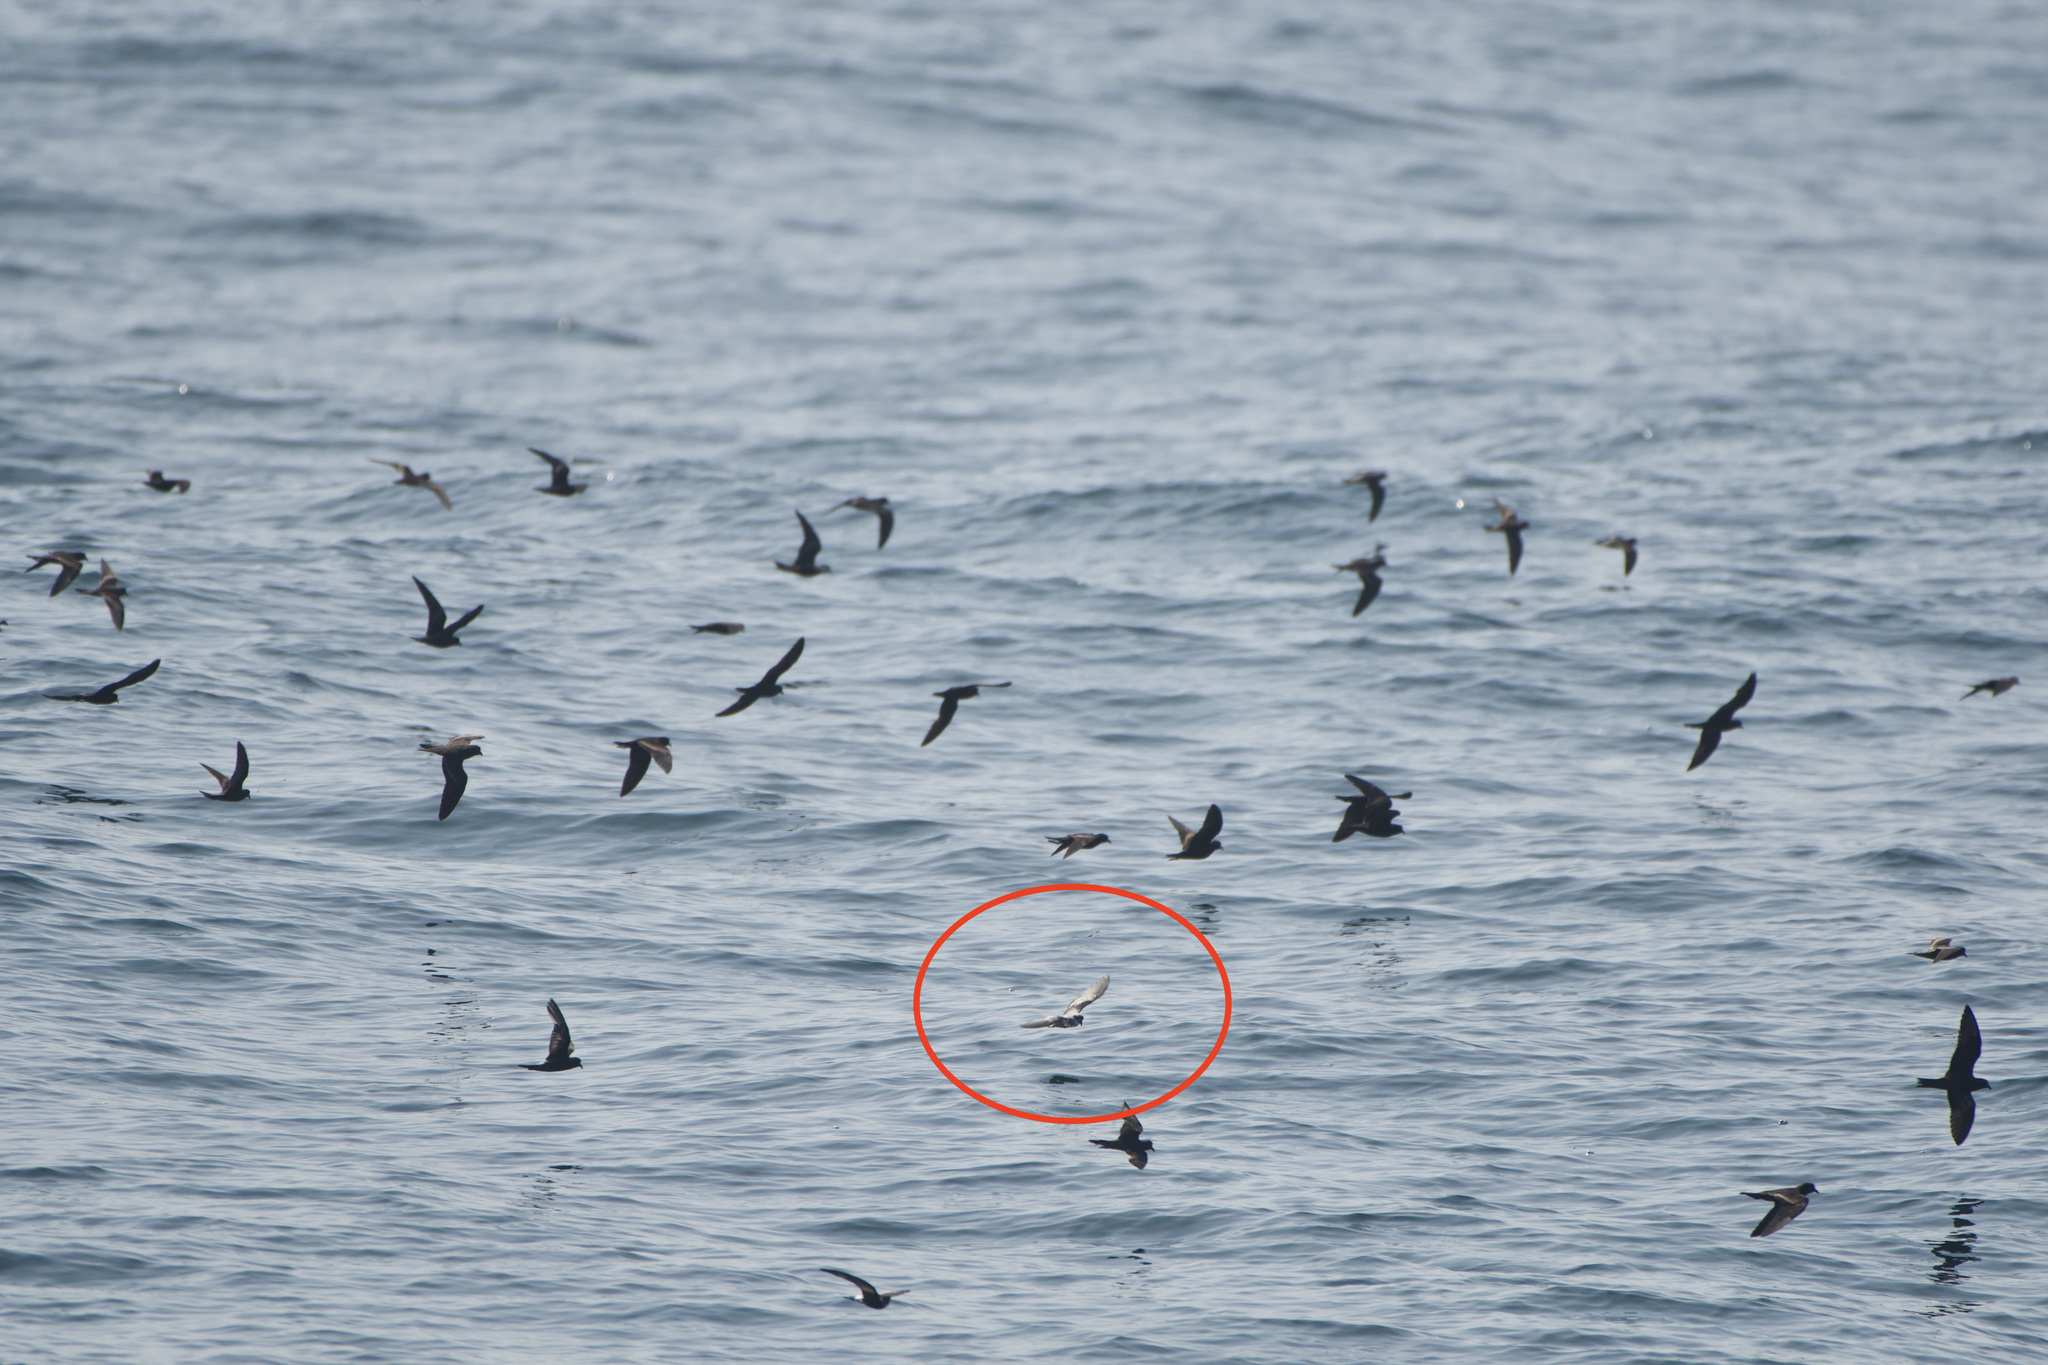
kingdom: Animalia
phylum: Chordata
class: Aves
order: Procellariiformes
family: Hydrobatidae
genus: Oceanodroma
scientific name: Oceanodroma furcata
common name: Fork-tailed storm-petrel
